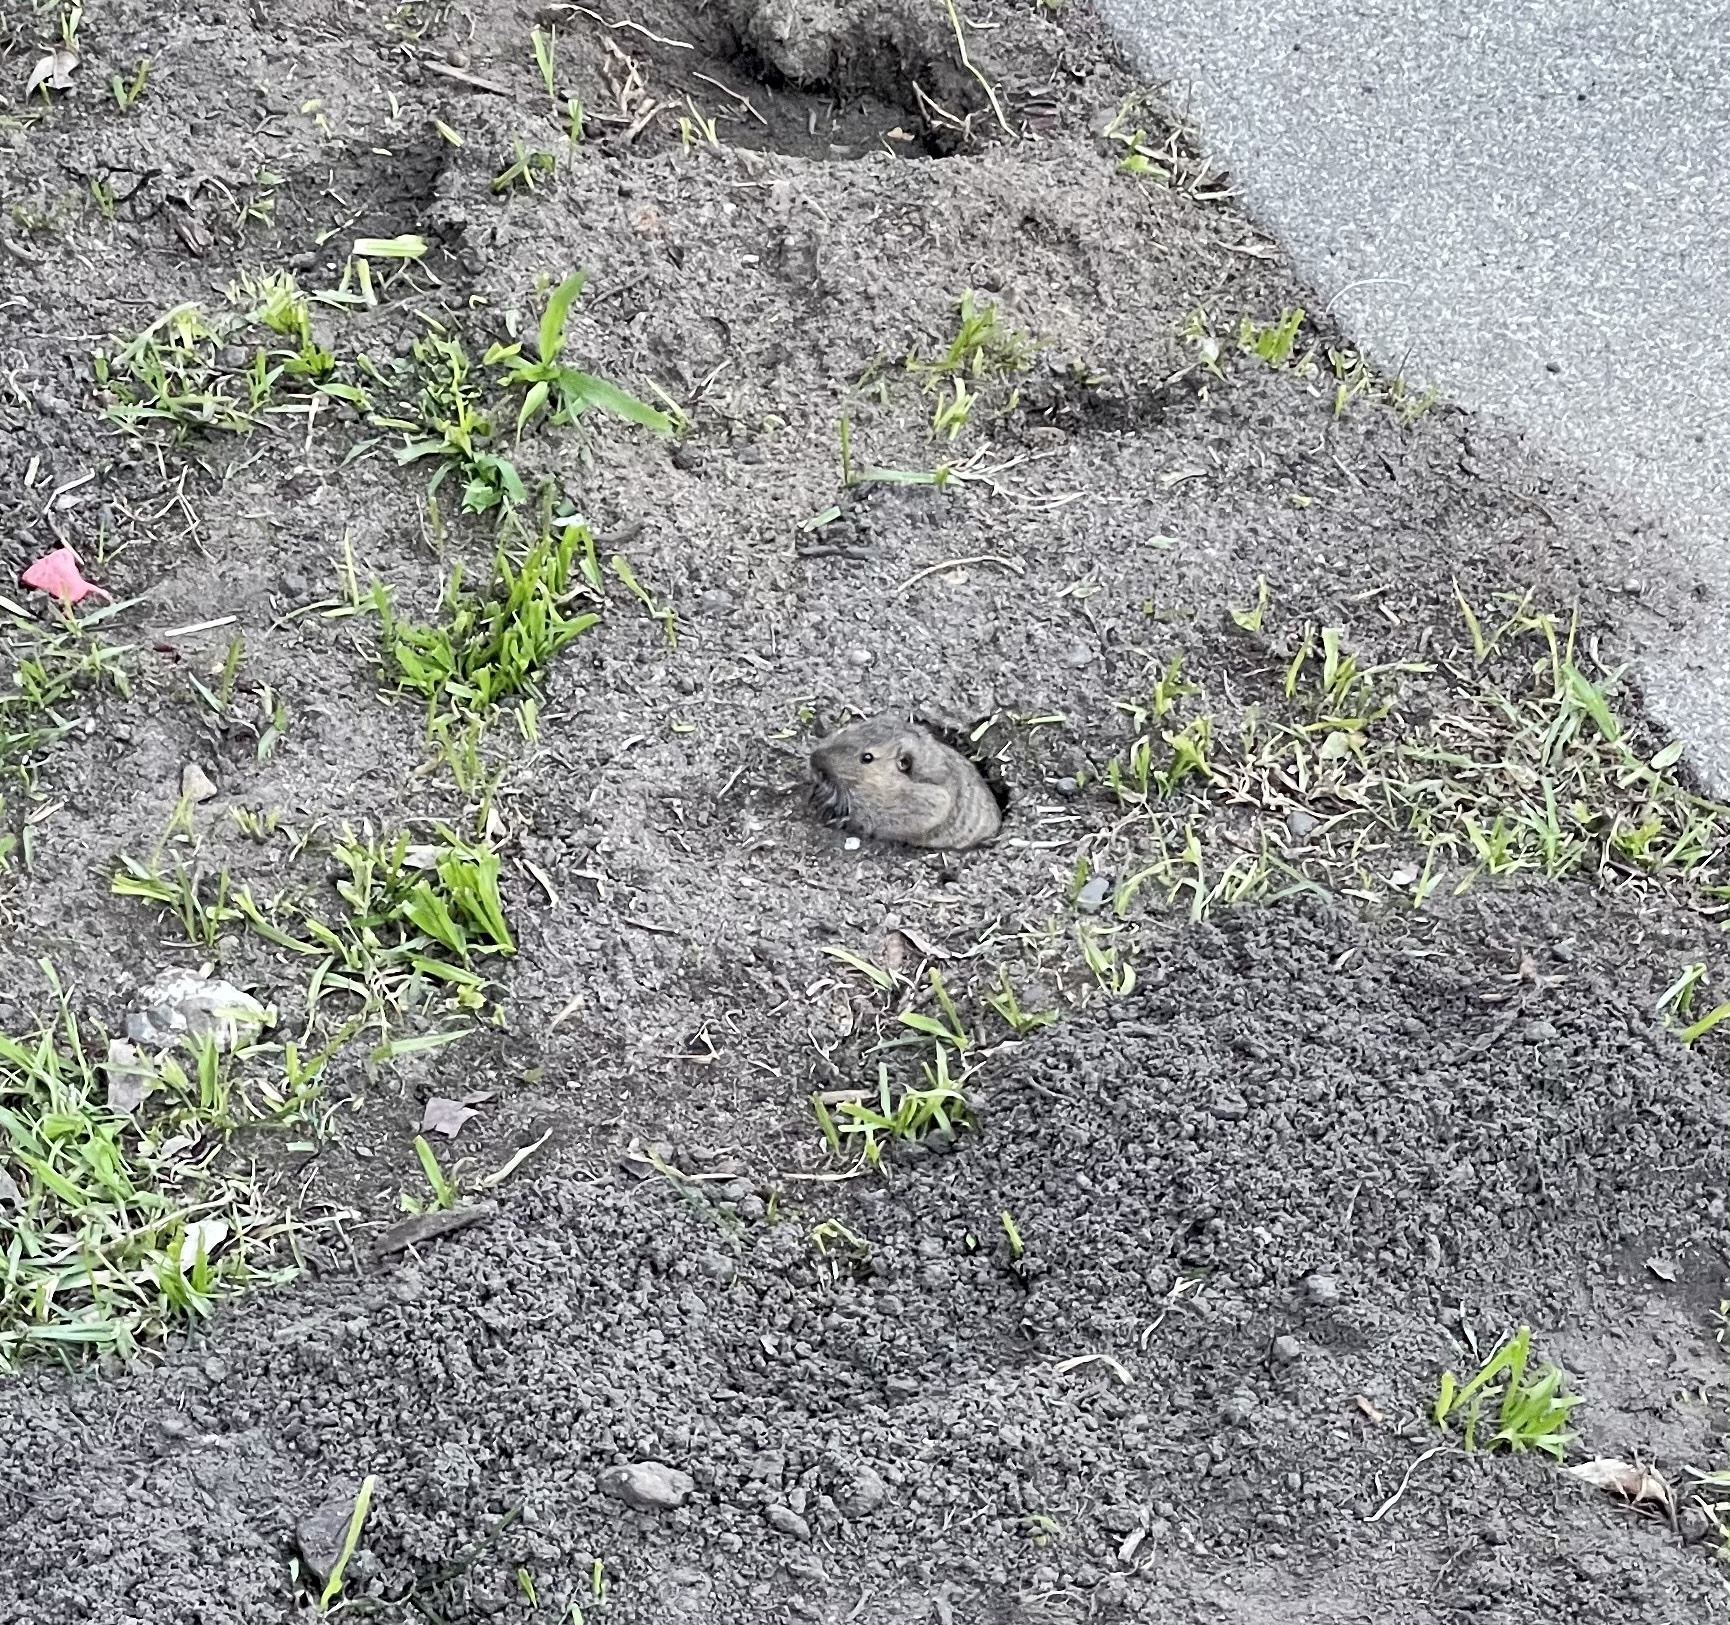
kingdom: Animalia
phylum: Chordata
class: Mammalia
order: Rodentia
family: Geomyidae
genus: Thomomys
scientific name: Thomomys bottae
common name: Botta's pocket gopher
